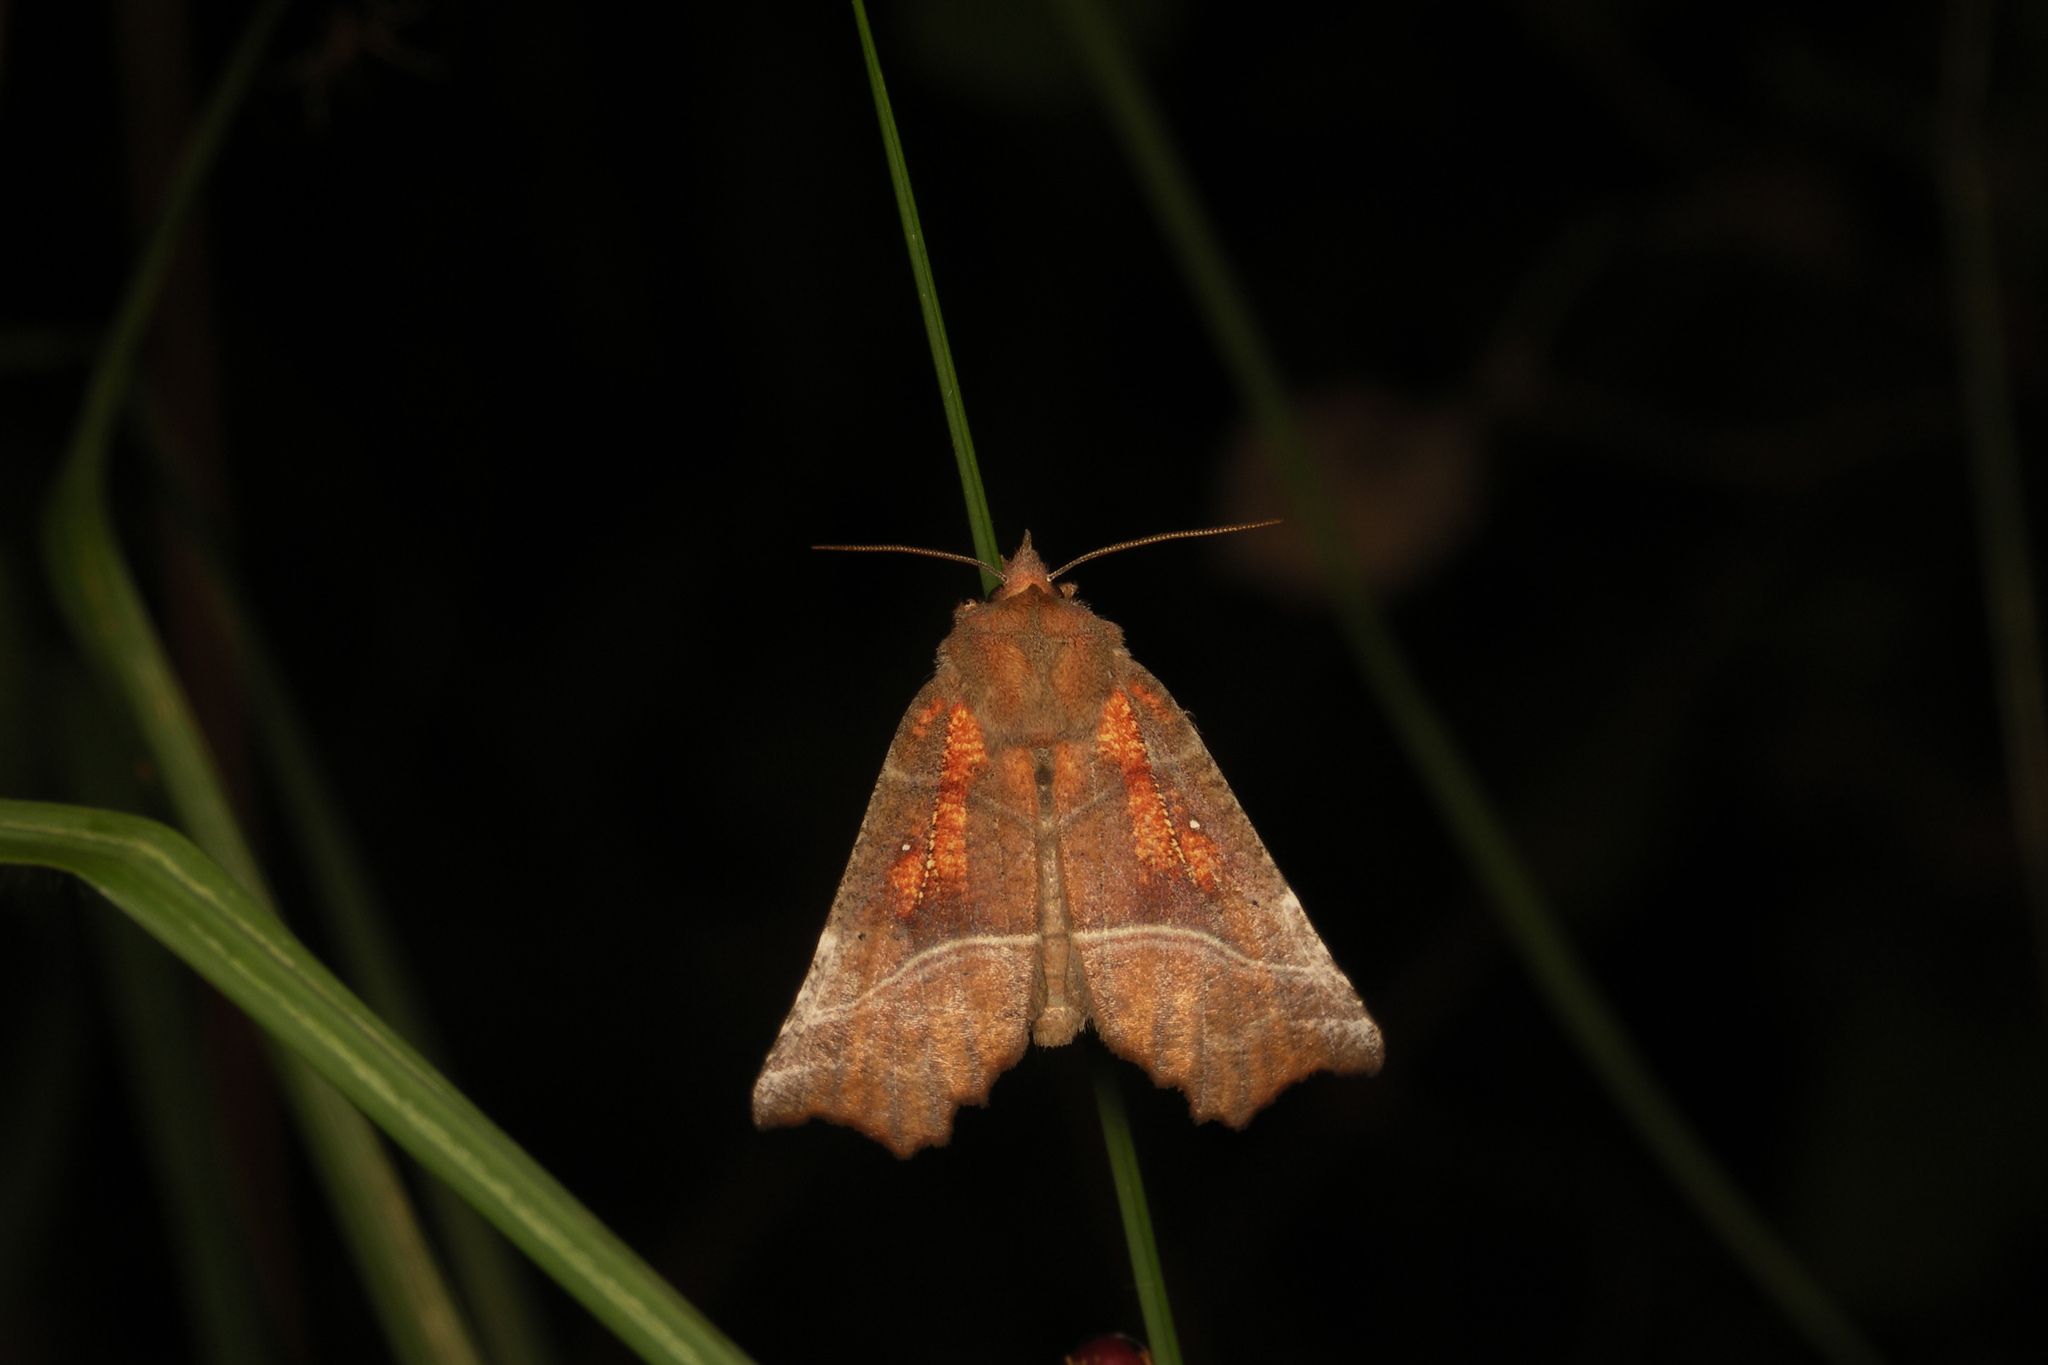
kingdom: Animalia
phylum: Arthropoda
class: Insecta
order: Lepidoptera
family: Erebidae
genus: Scoliopteryx
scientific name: Scoliopteryx libatrix
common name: Herald
